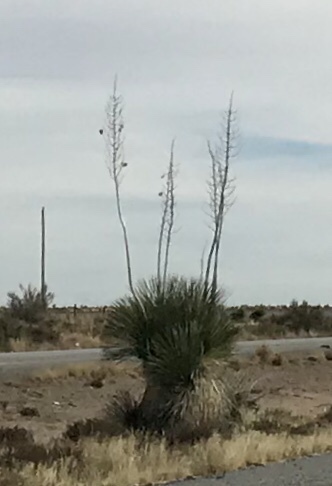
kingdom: Plantae
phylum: Tracheophyta
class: Liliopsida
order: Asparagales
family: Asparagaceae
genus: Yucca
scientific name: Yucca elata
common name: Palmella
